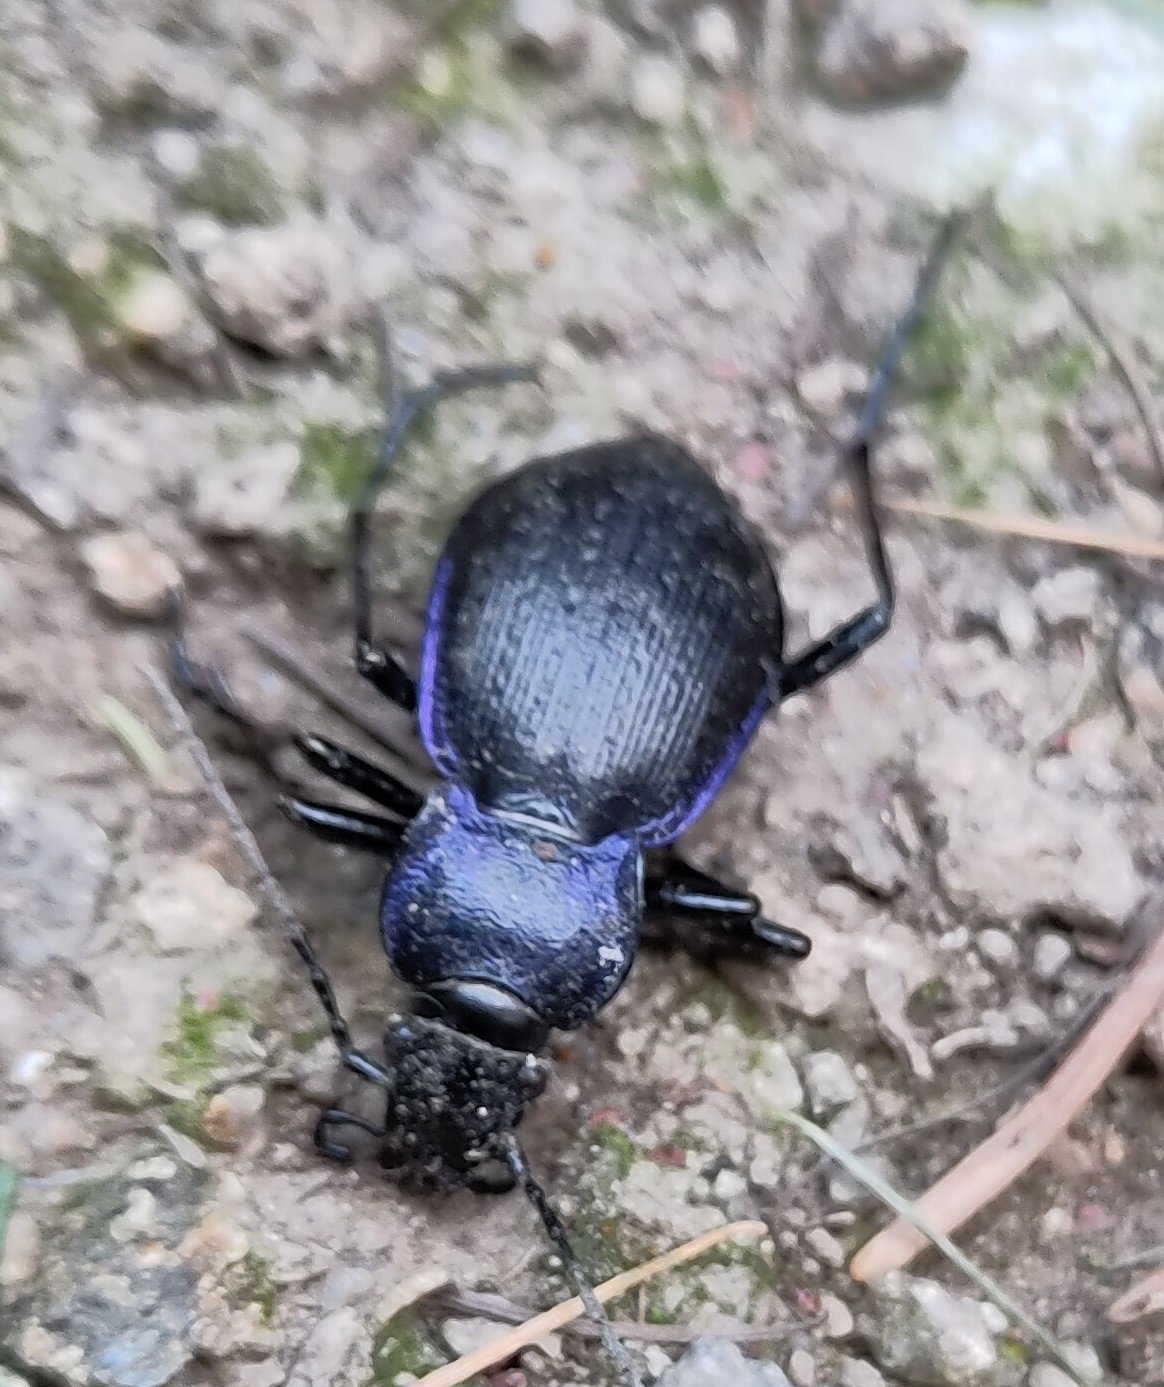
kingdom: Animalia
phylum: Arthropoda
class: Insecta
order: Coleoptera
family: Carabidae
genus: Carabus
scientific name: Carabus problematicus
